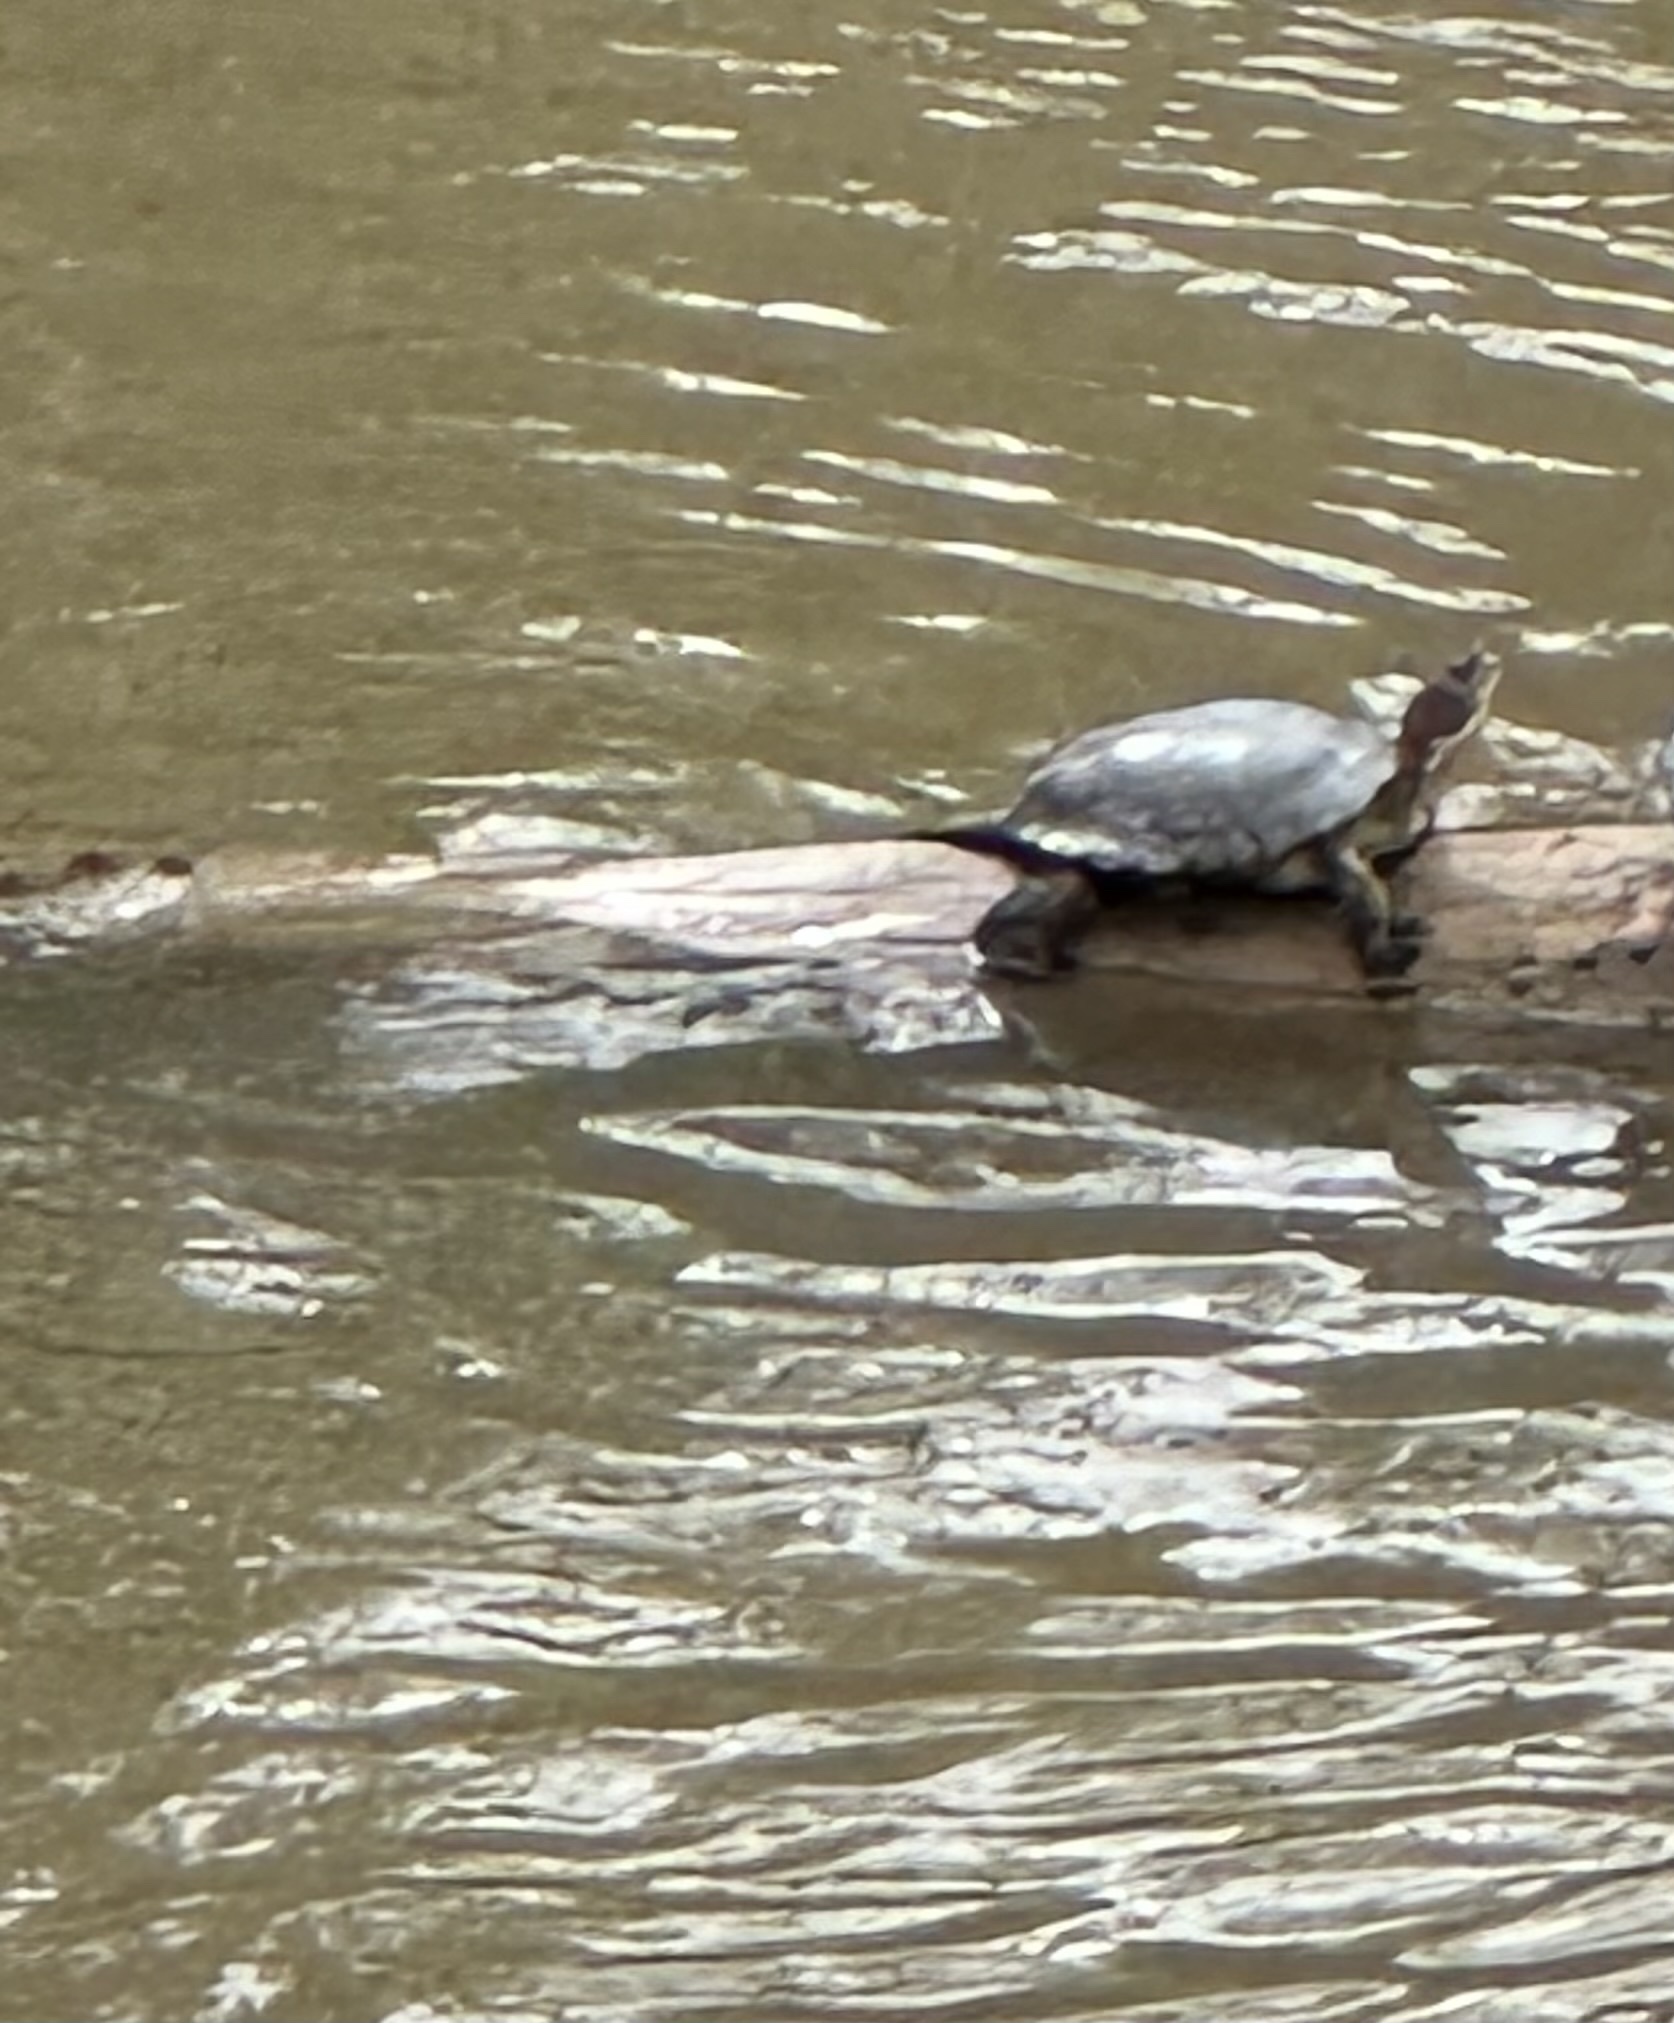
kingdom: Animalia
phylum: Chordata
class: Testudines
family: Emydidae
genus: Actinemys
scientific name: Actinemys marmorata
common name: Western pond turtle
